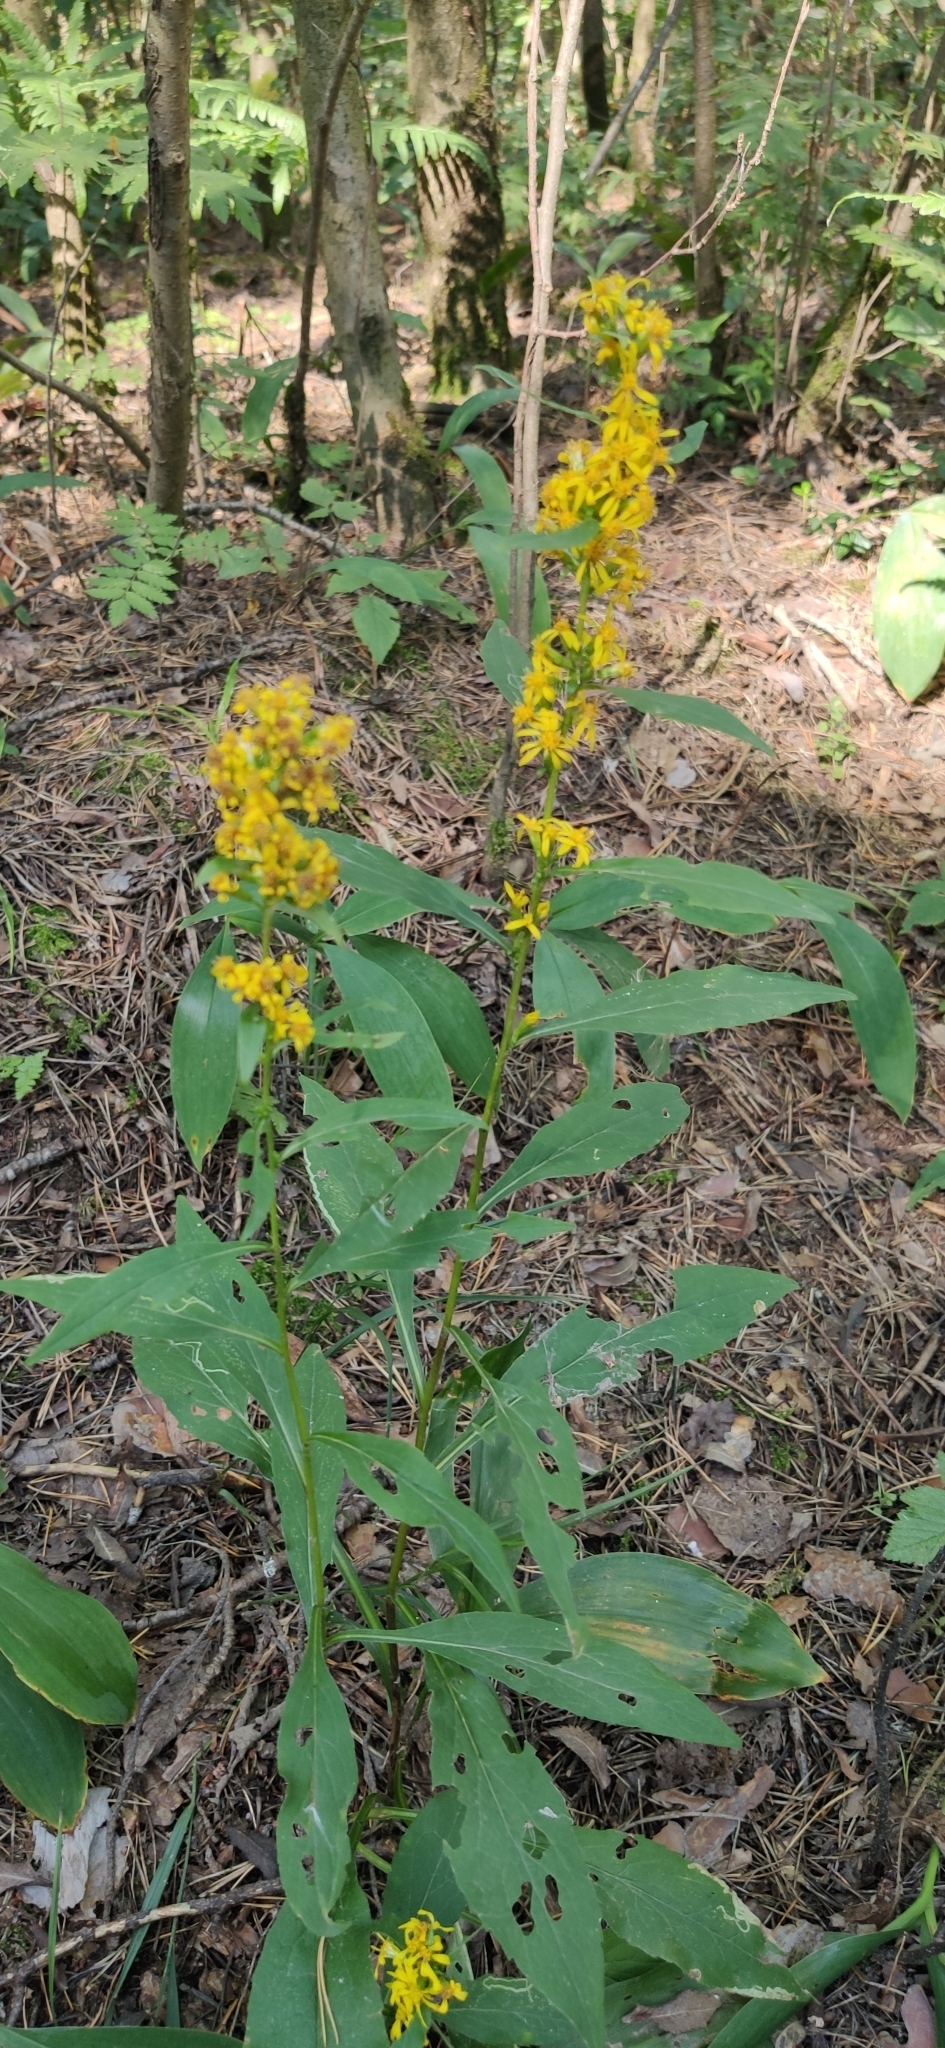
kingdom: Plantae
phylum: Tracheophyta
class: Magnoliopsida
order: Asterales
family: Asteraceae
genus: Solidago
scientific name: Solidago virgaurea
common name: Goldenrod
